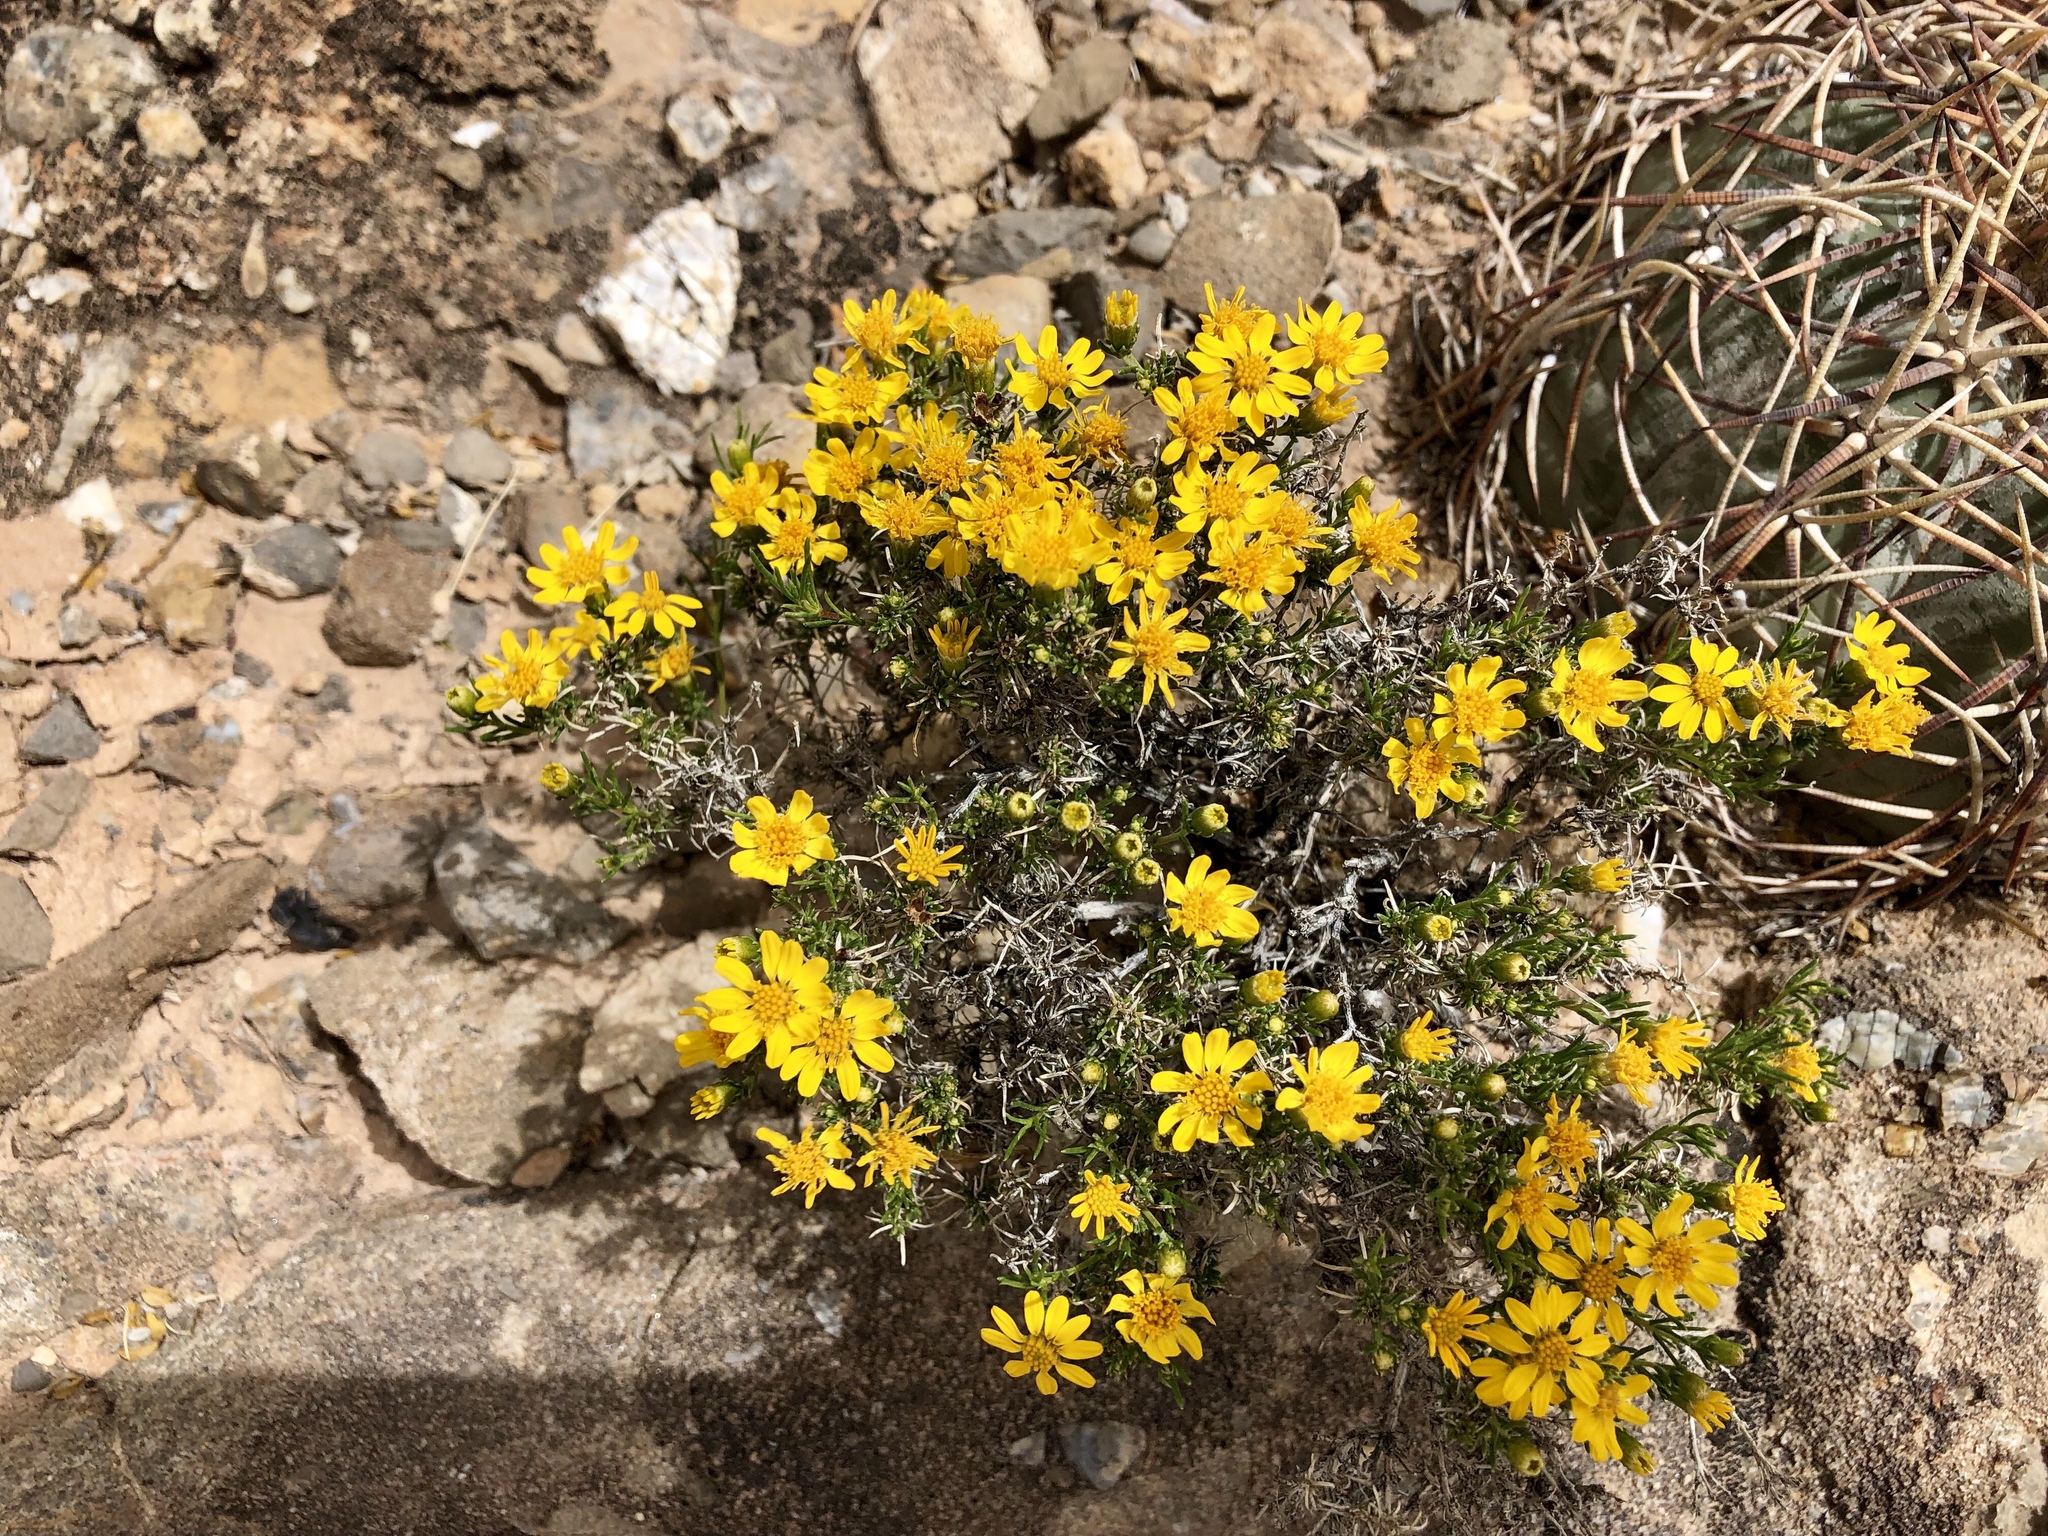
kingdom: Plantae
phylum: Tracheophyta
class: Magnoliopsida
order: Asterales
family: Asteraceae
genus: Thymophylla
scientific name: Thymophylla acerosa
